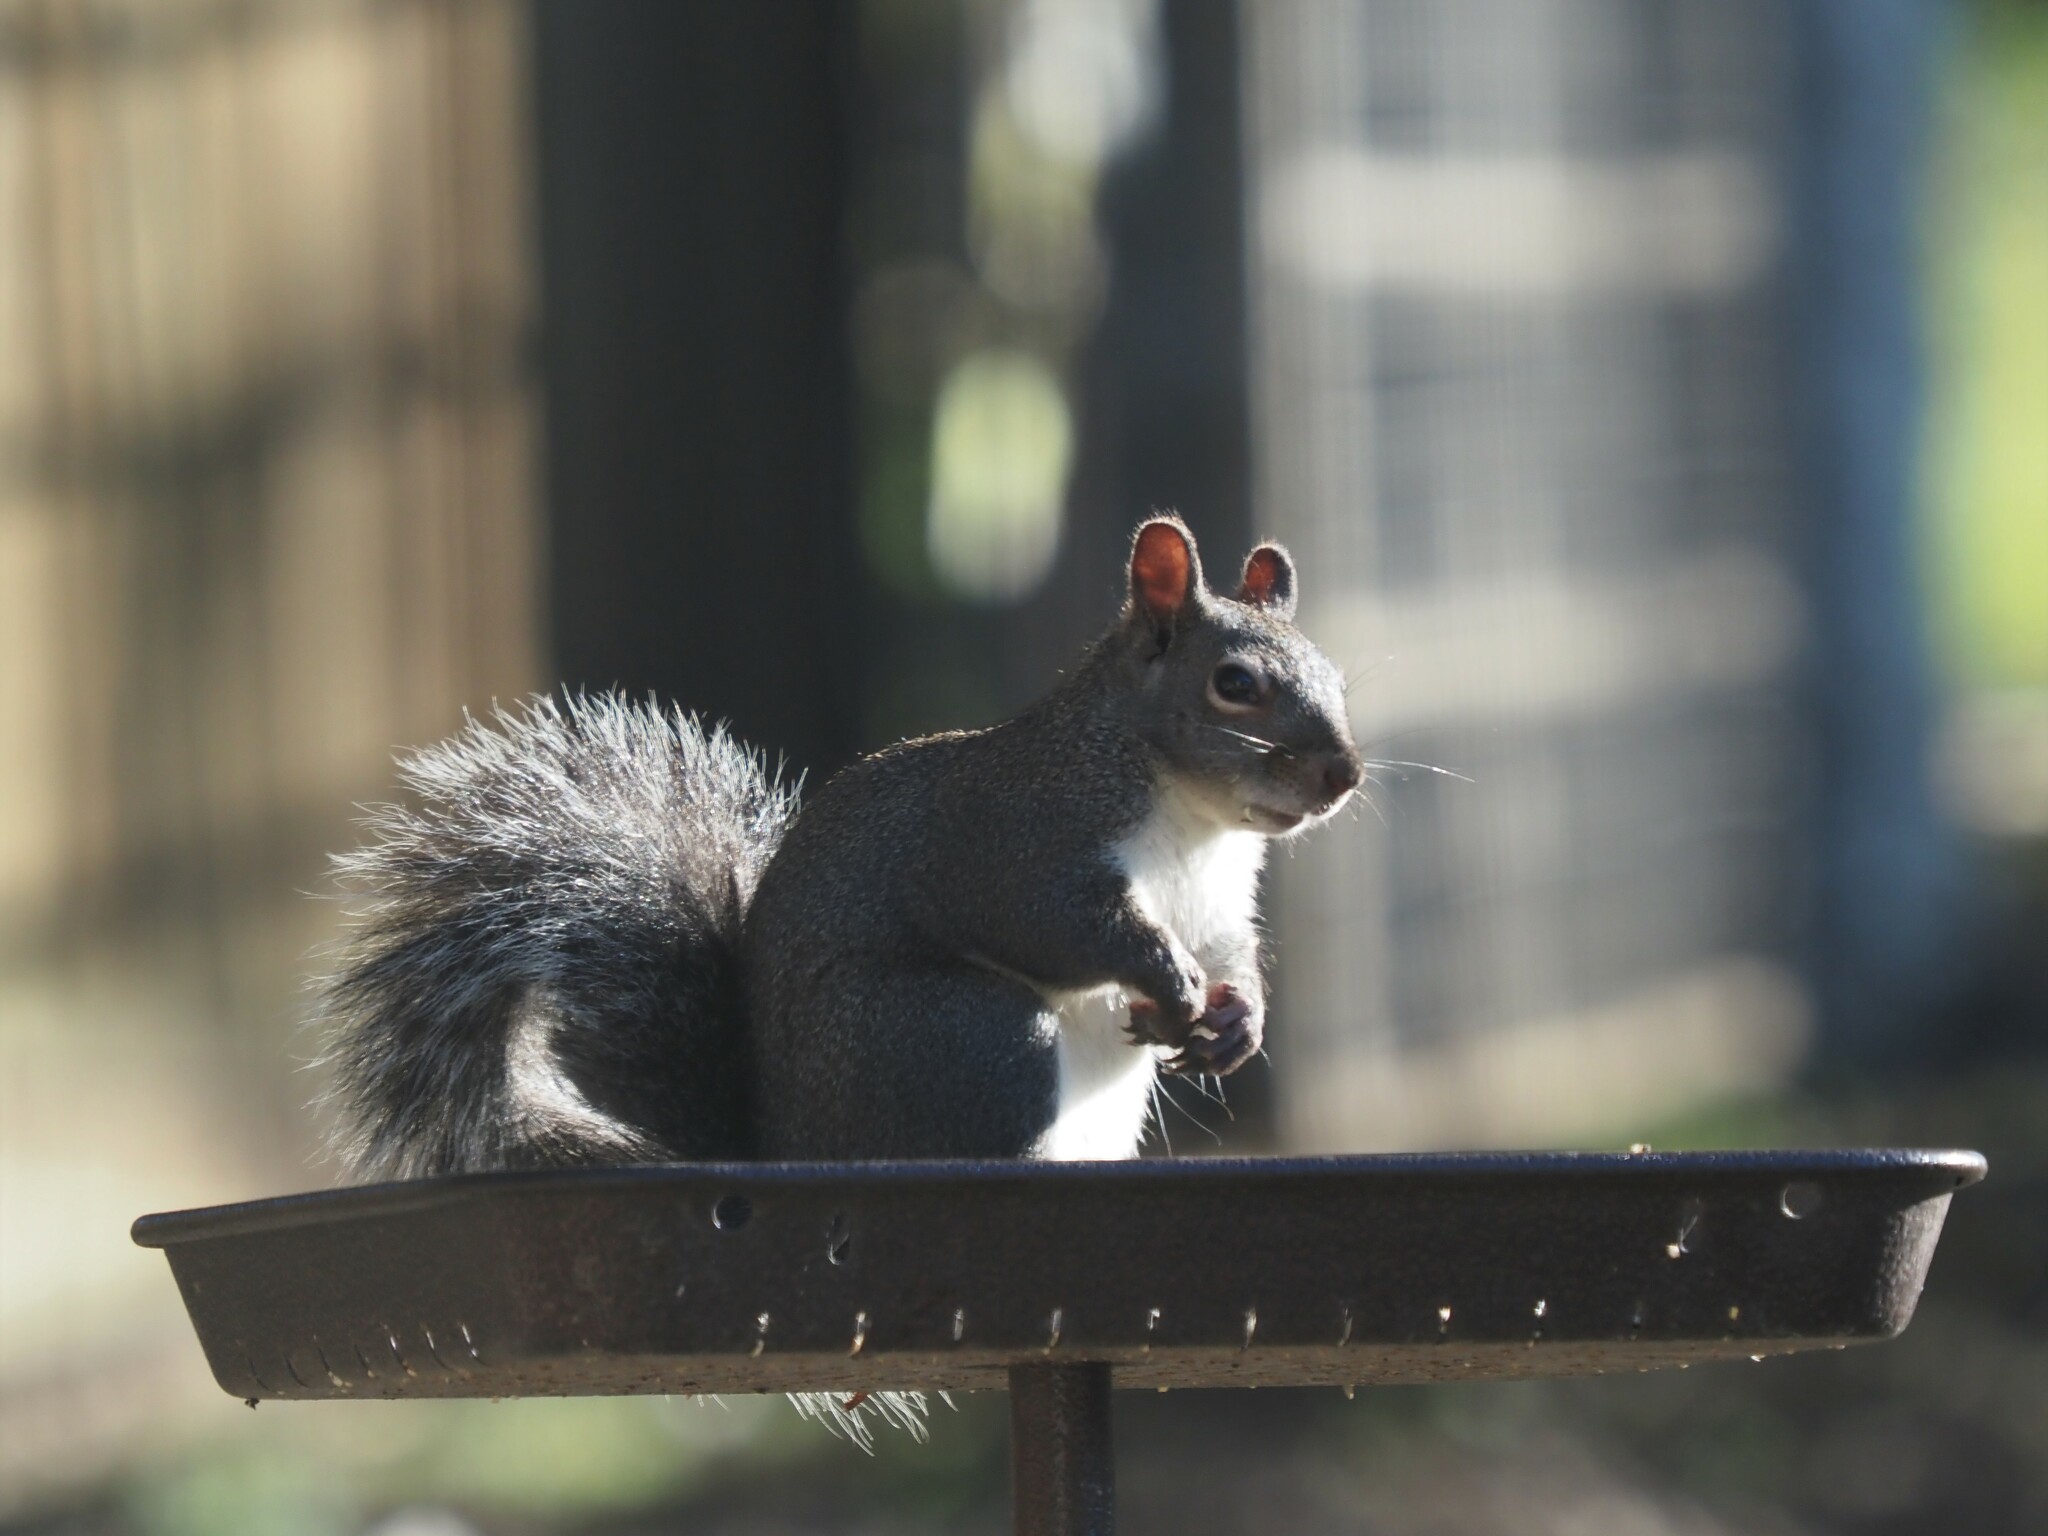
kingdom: Animalia
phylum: Chordata
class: Mammalia
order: Rodentia
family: Sciuridae
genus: Sciurus
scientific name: Sciurus griseus
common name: Western gray squirrel
